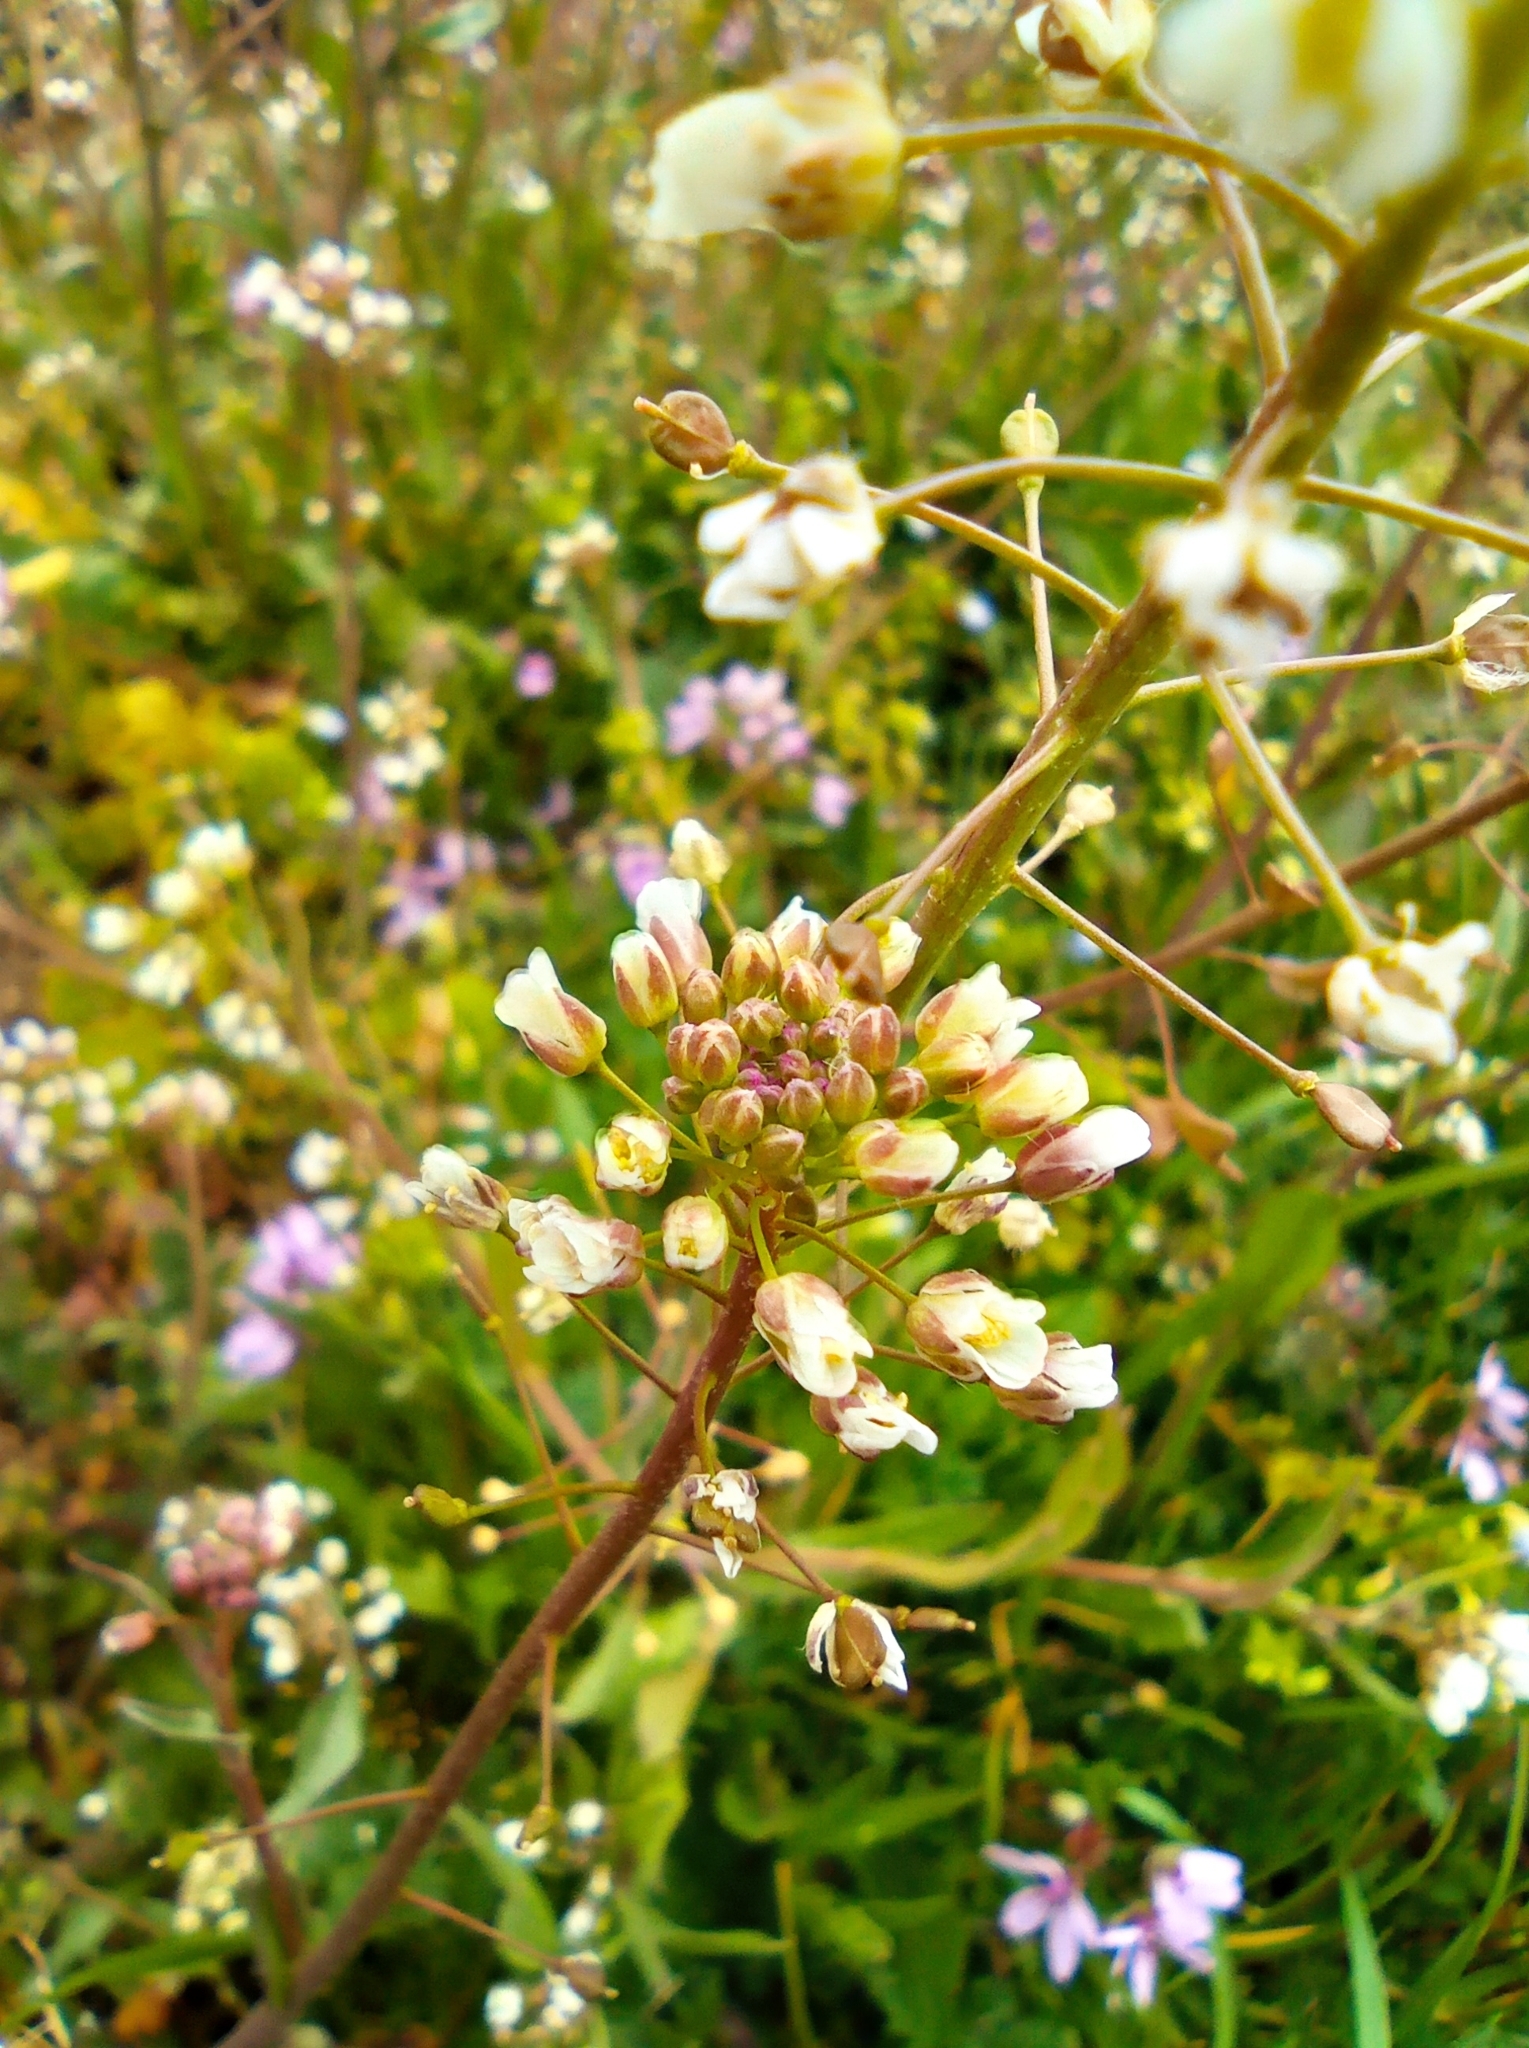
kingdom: Plantae
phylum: Tracheophyta
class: Magnoliopsida
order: Brassicales
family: Brassicaceae
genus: Capsella
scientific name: Capsella bursa-pastoris
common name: Shepherd's purse
